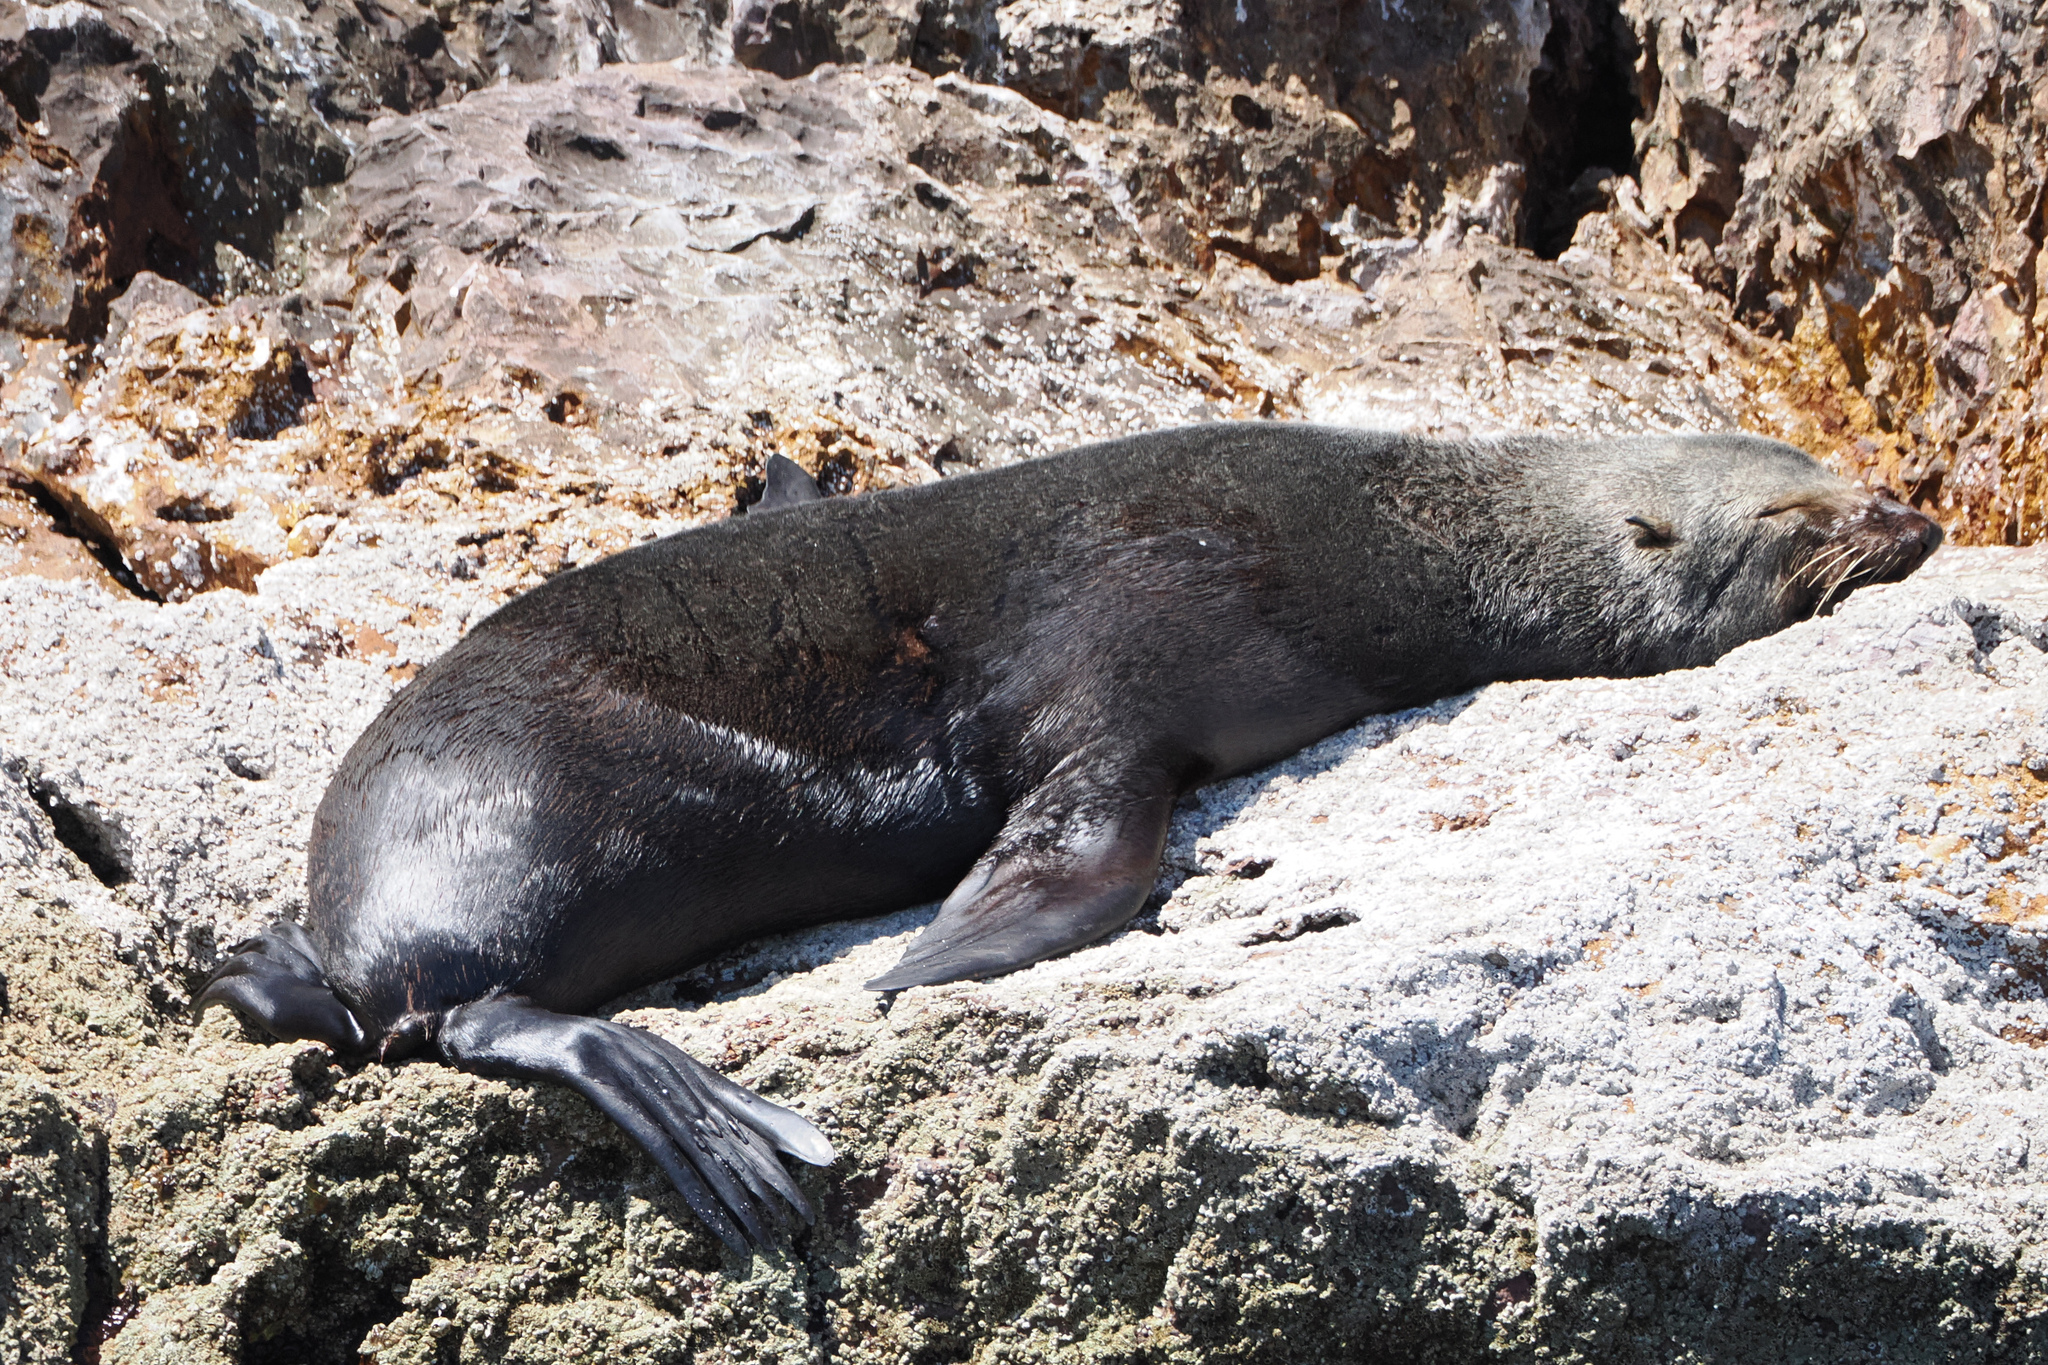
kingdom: Animalia
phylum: Chordata
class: Mammalia
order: Carnivora
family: Otariidae
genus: Arctocephalus
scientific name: Arctocephalus philippii
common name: Juan fernández fur seal
